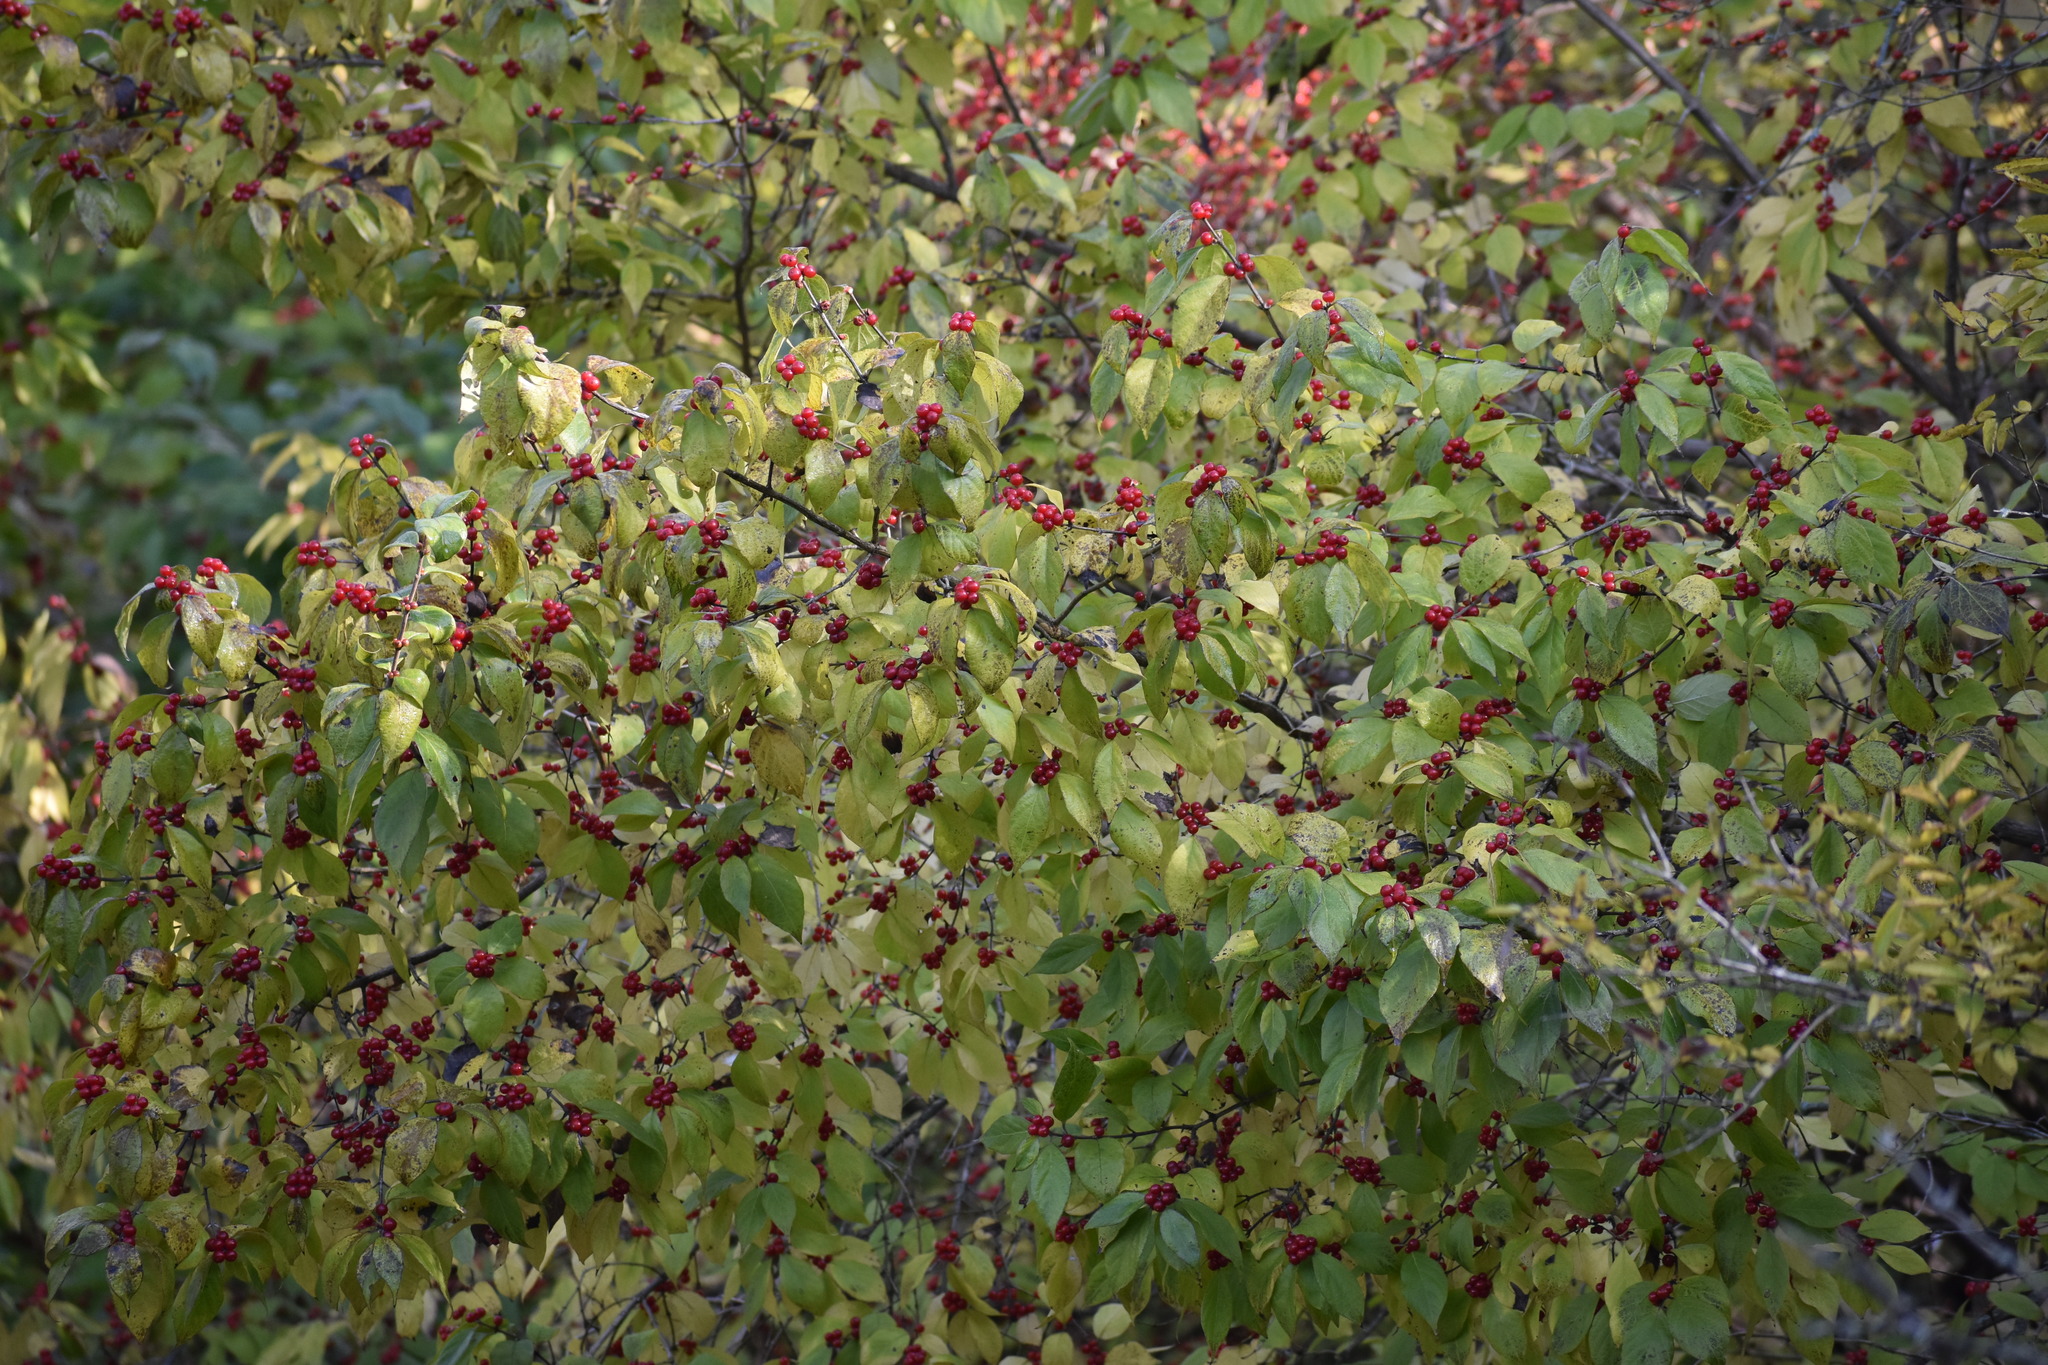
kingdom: Plantae
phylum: Tracheophyta
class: Magnoliopsida
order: Dipsacales
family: Caprifoliaceae
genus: Lonicera
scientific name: Lonicera maackii
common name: Amur honeysuckle
